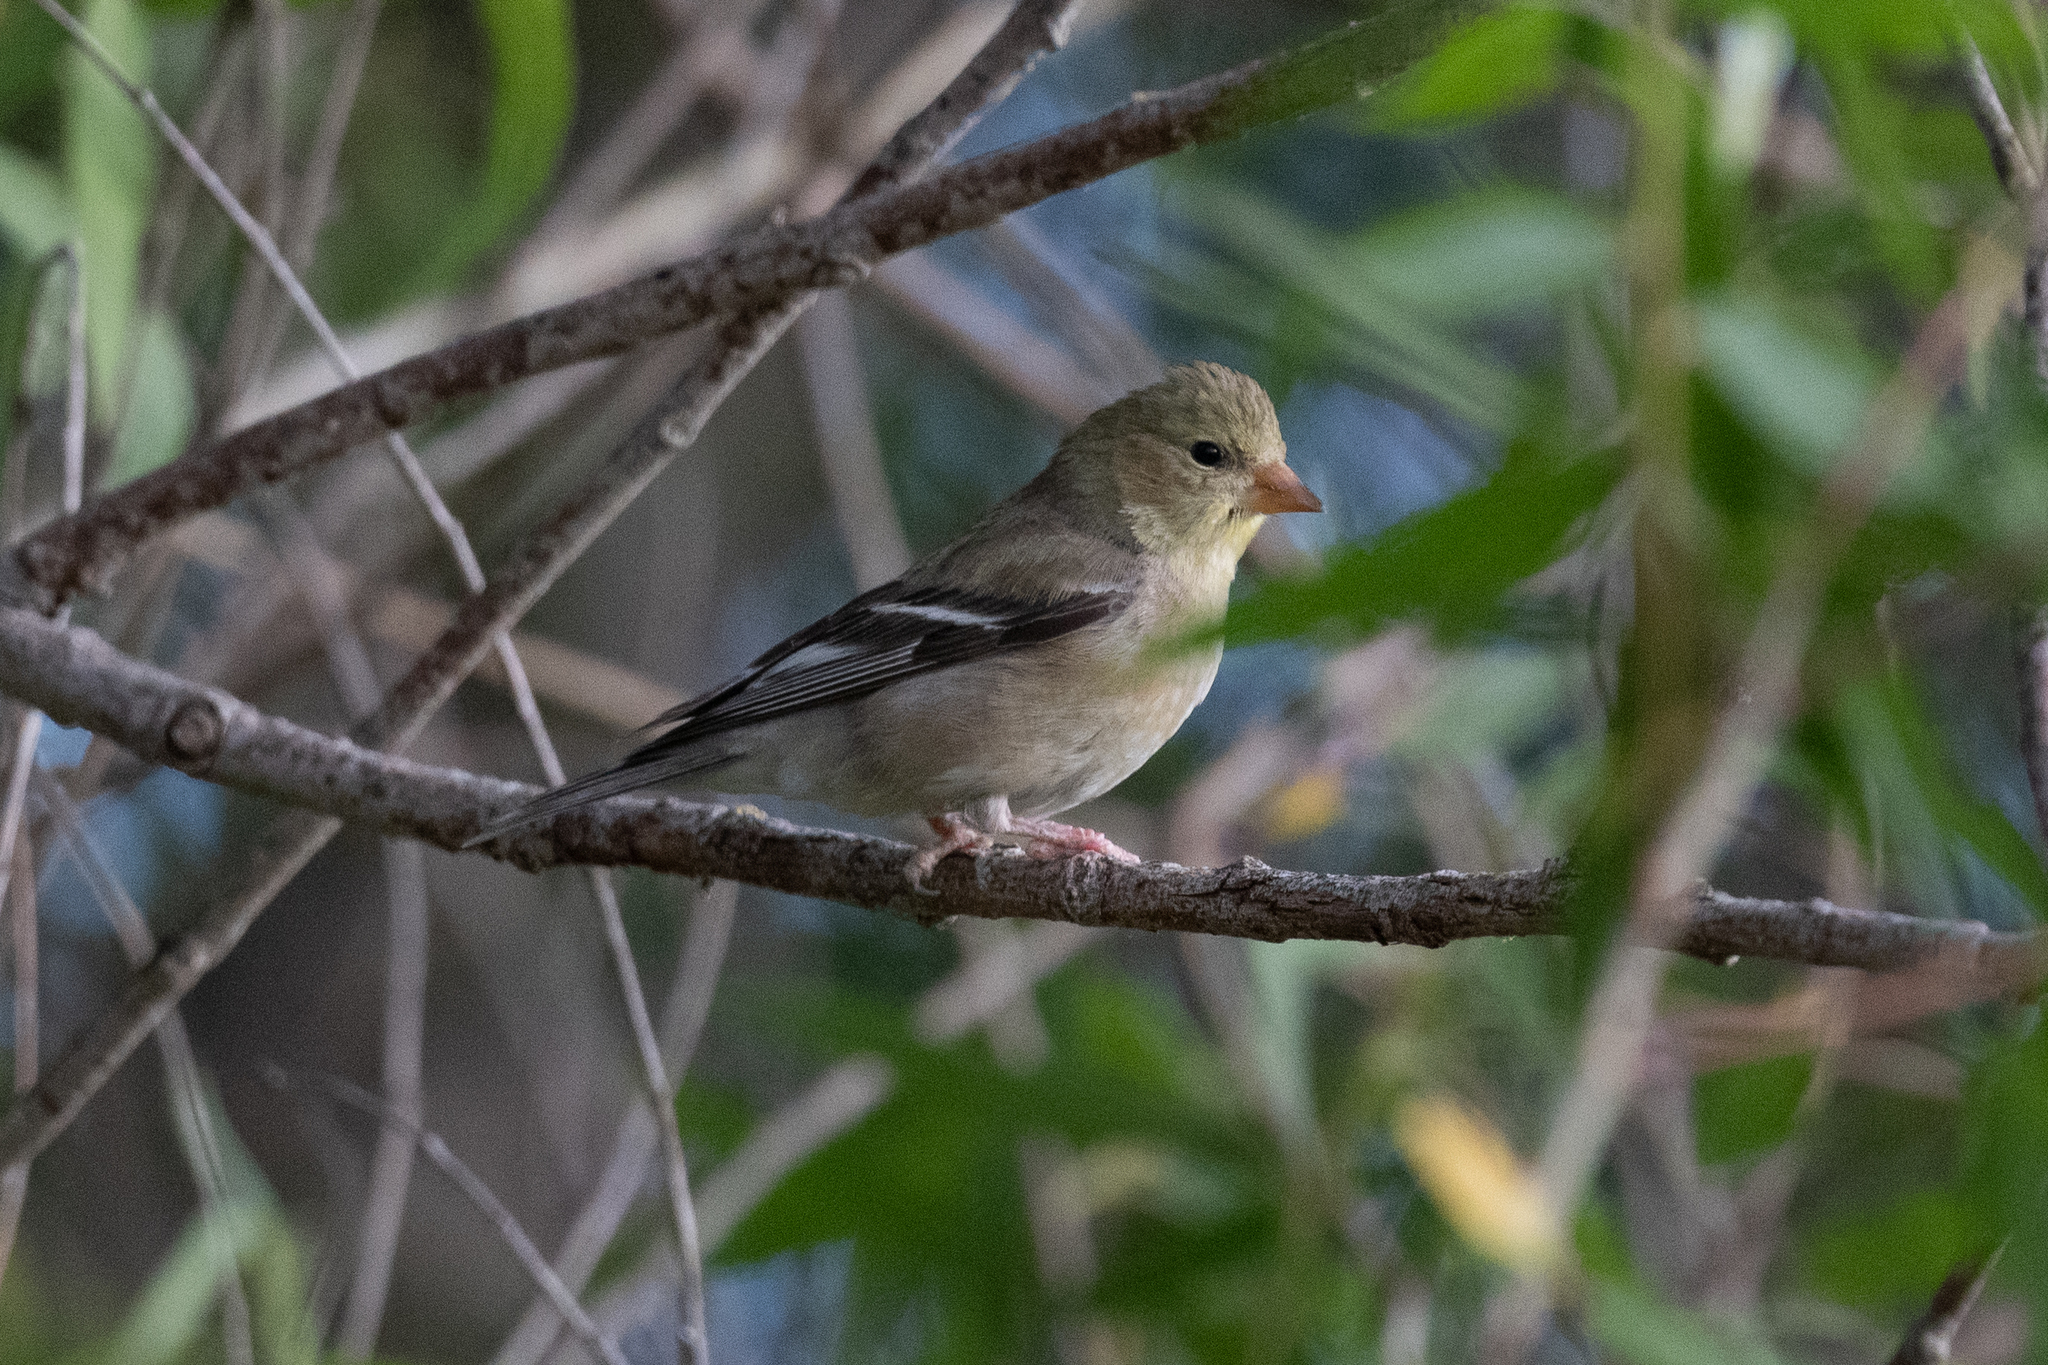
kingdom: Animalia
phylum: Chordata
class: Aves
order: Passeriformes
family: Fringillidae
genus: Spinus
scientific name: Spinus tristis
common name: American goldfinch
